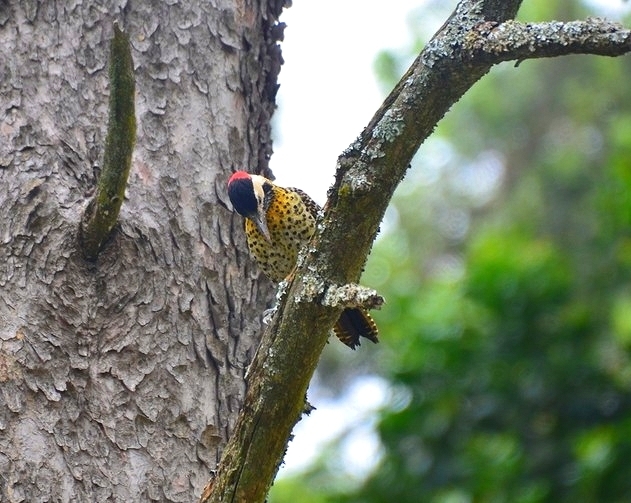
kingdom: Animalia
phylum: Chordata
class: Aves
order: Piciformes
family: Picidae
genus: Colaptes
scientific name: Colaptes melanochloros
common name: Green-barred woodpecker
